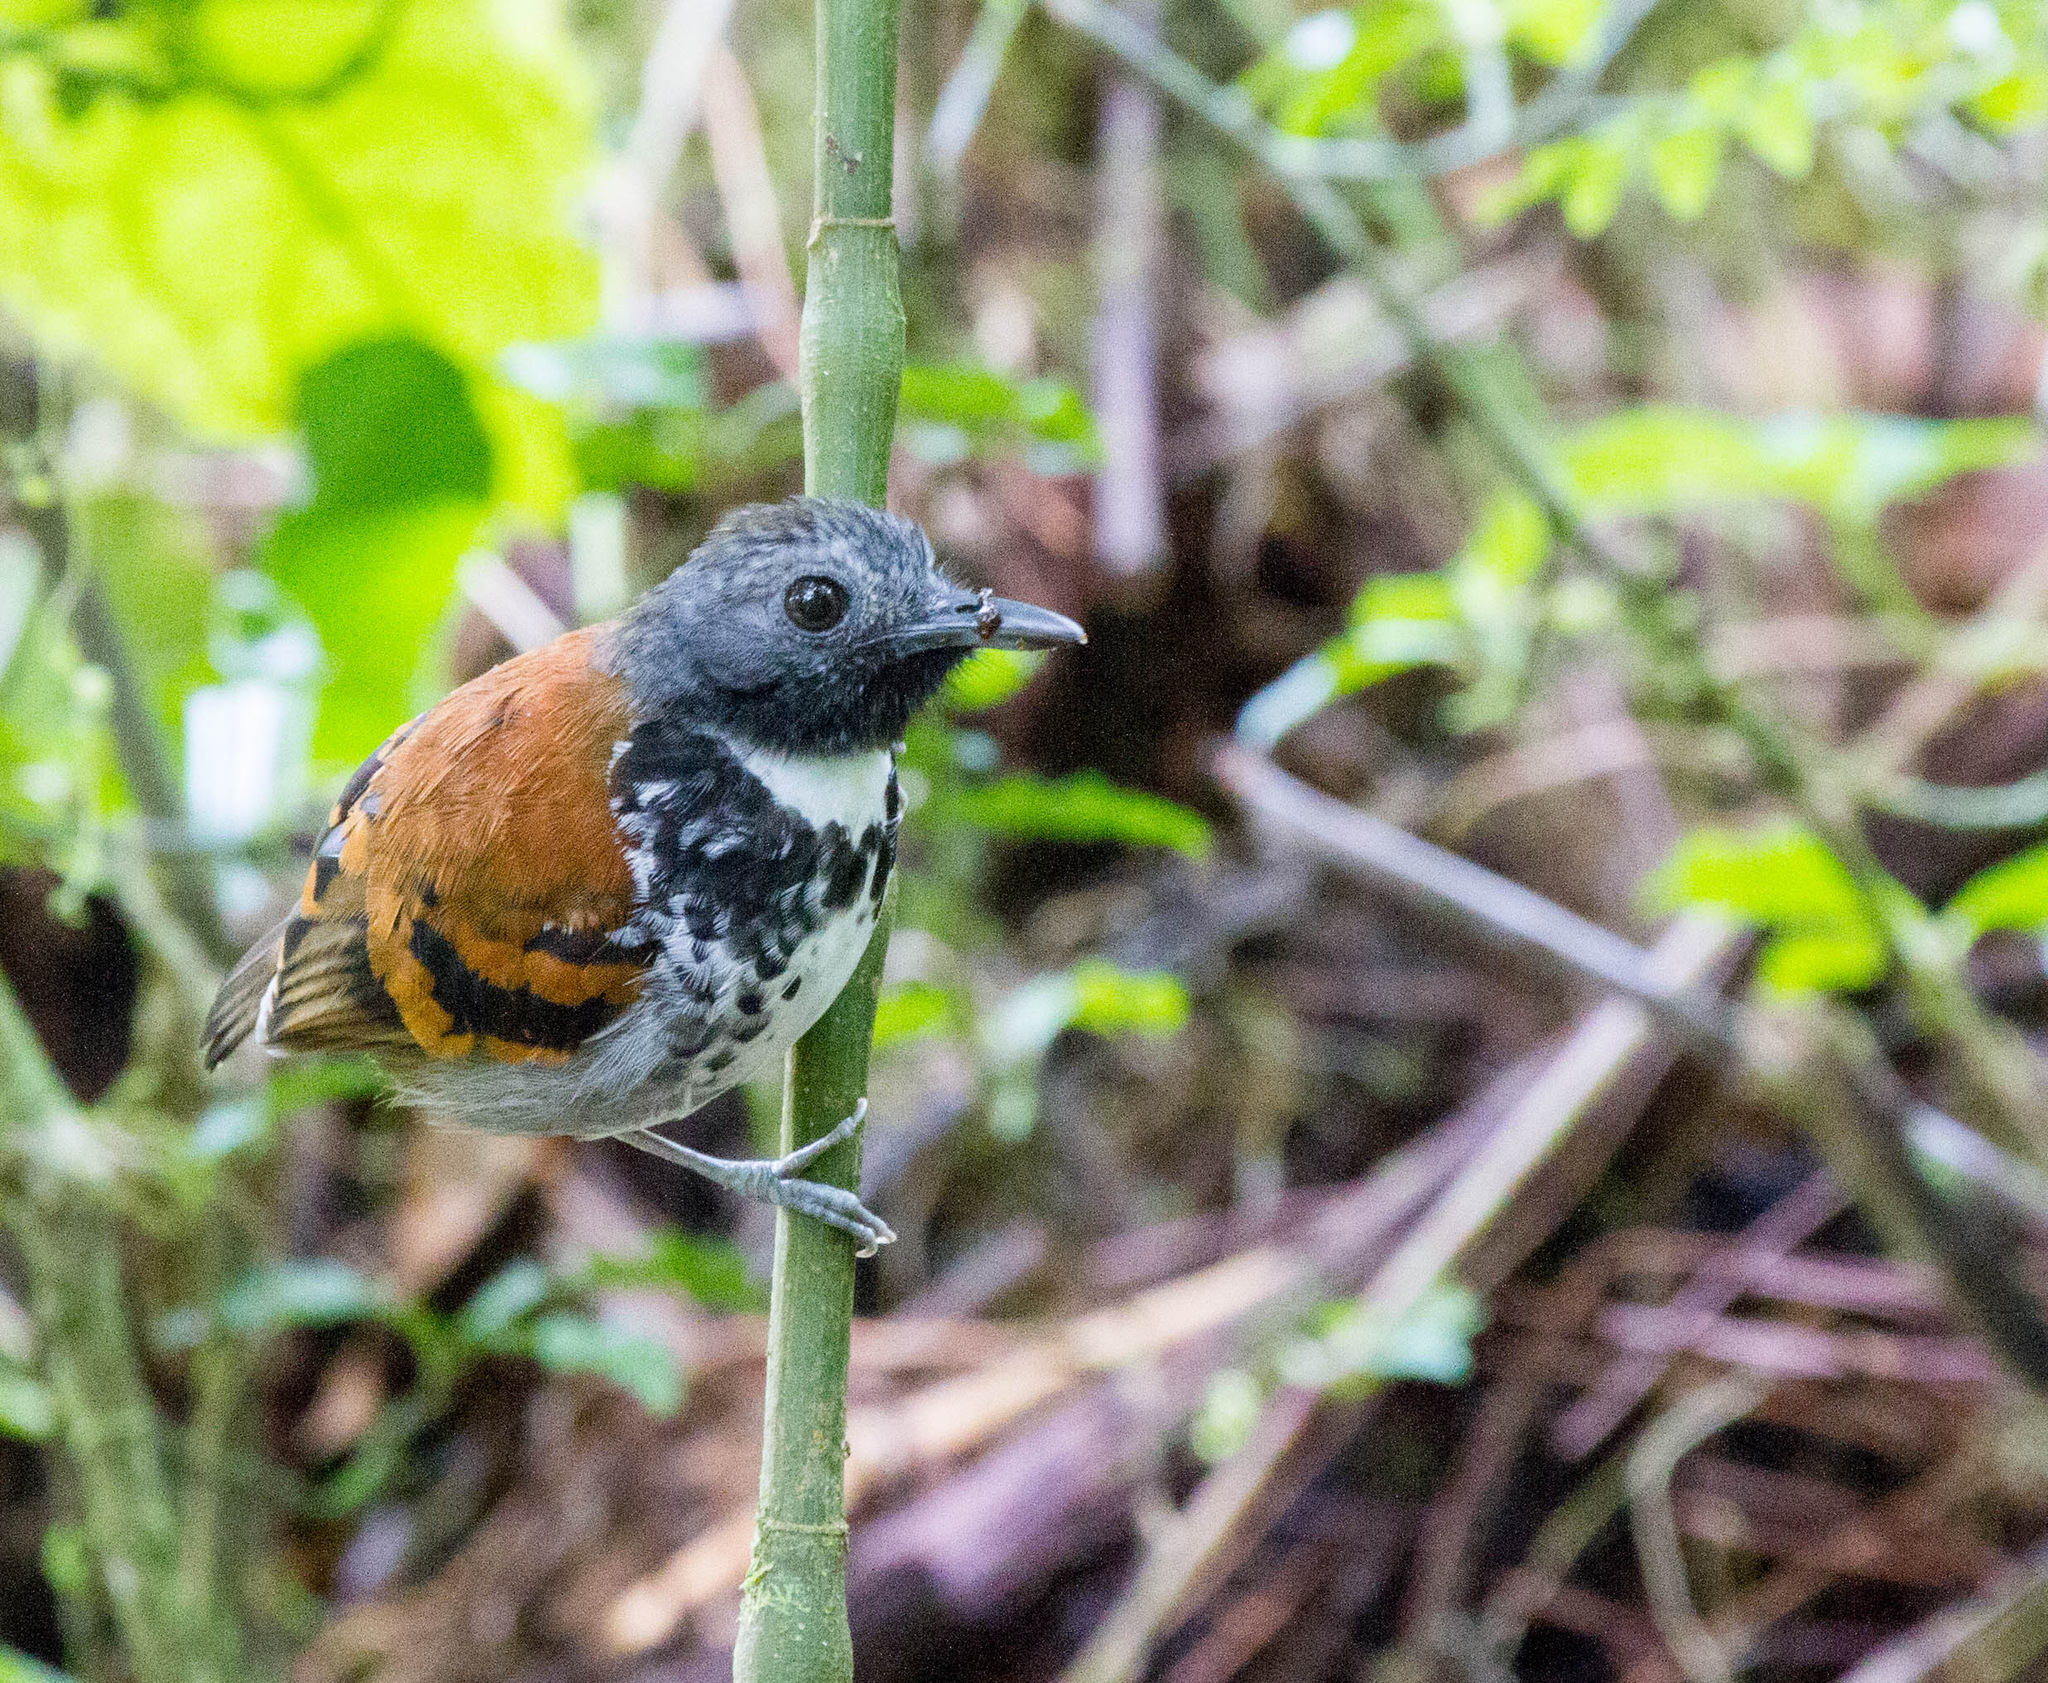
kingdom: Animalia
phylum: Chordata
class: Aves
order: Passeriformes
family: Thamnophilidae
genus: Hylophylax
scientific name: Hylophylax naevioides
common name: Spotted antbird
